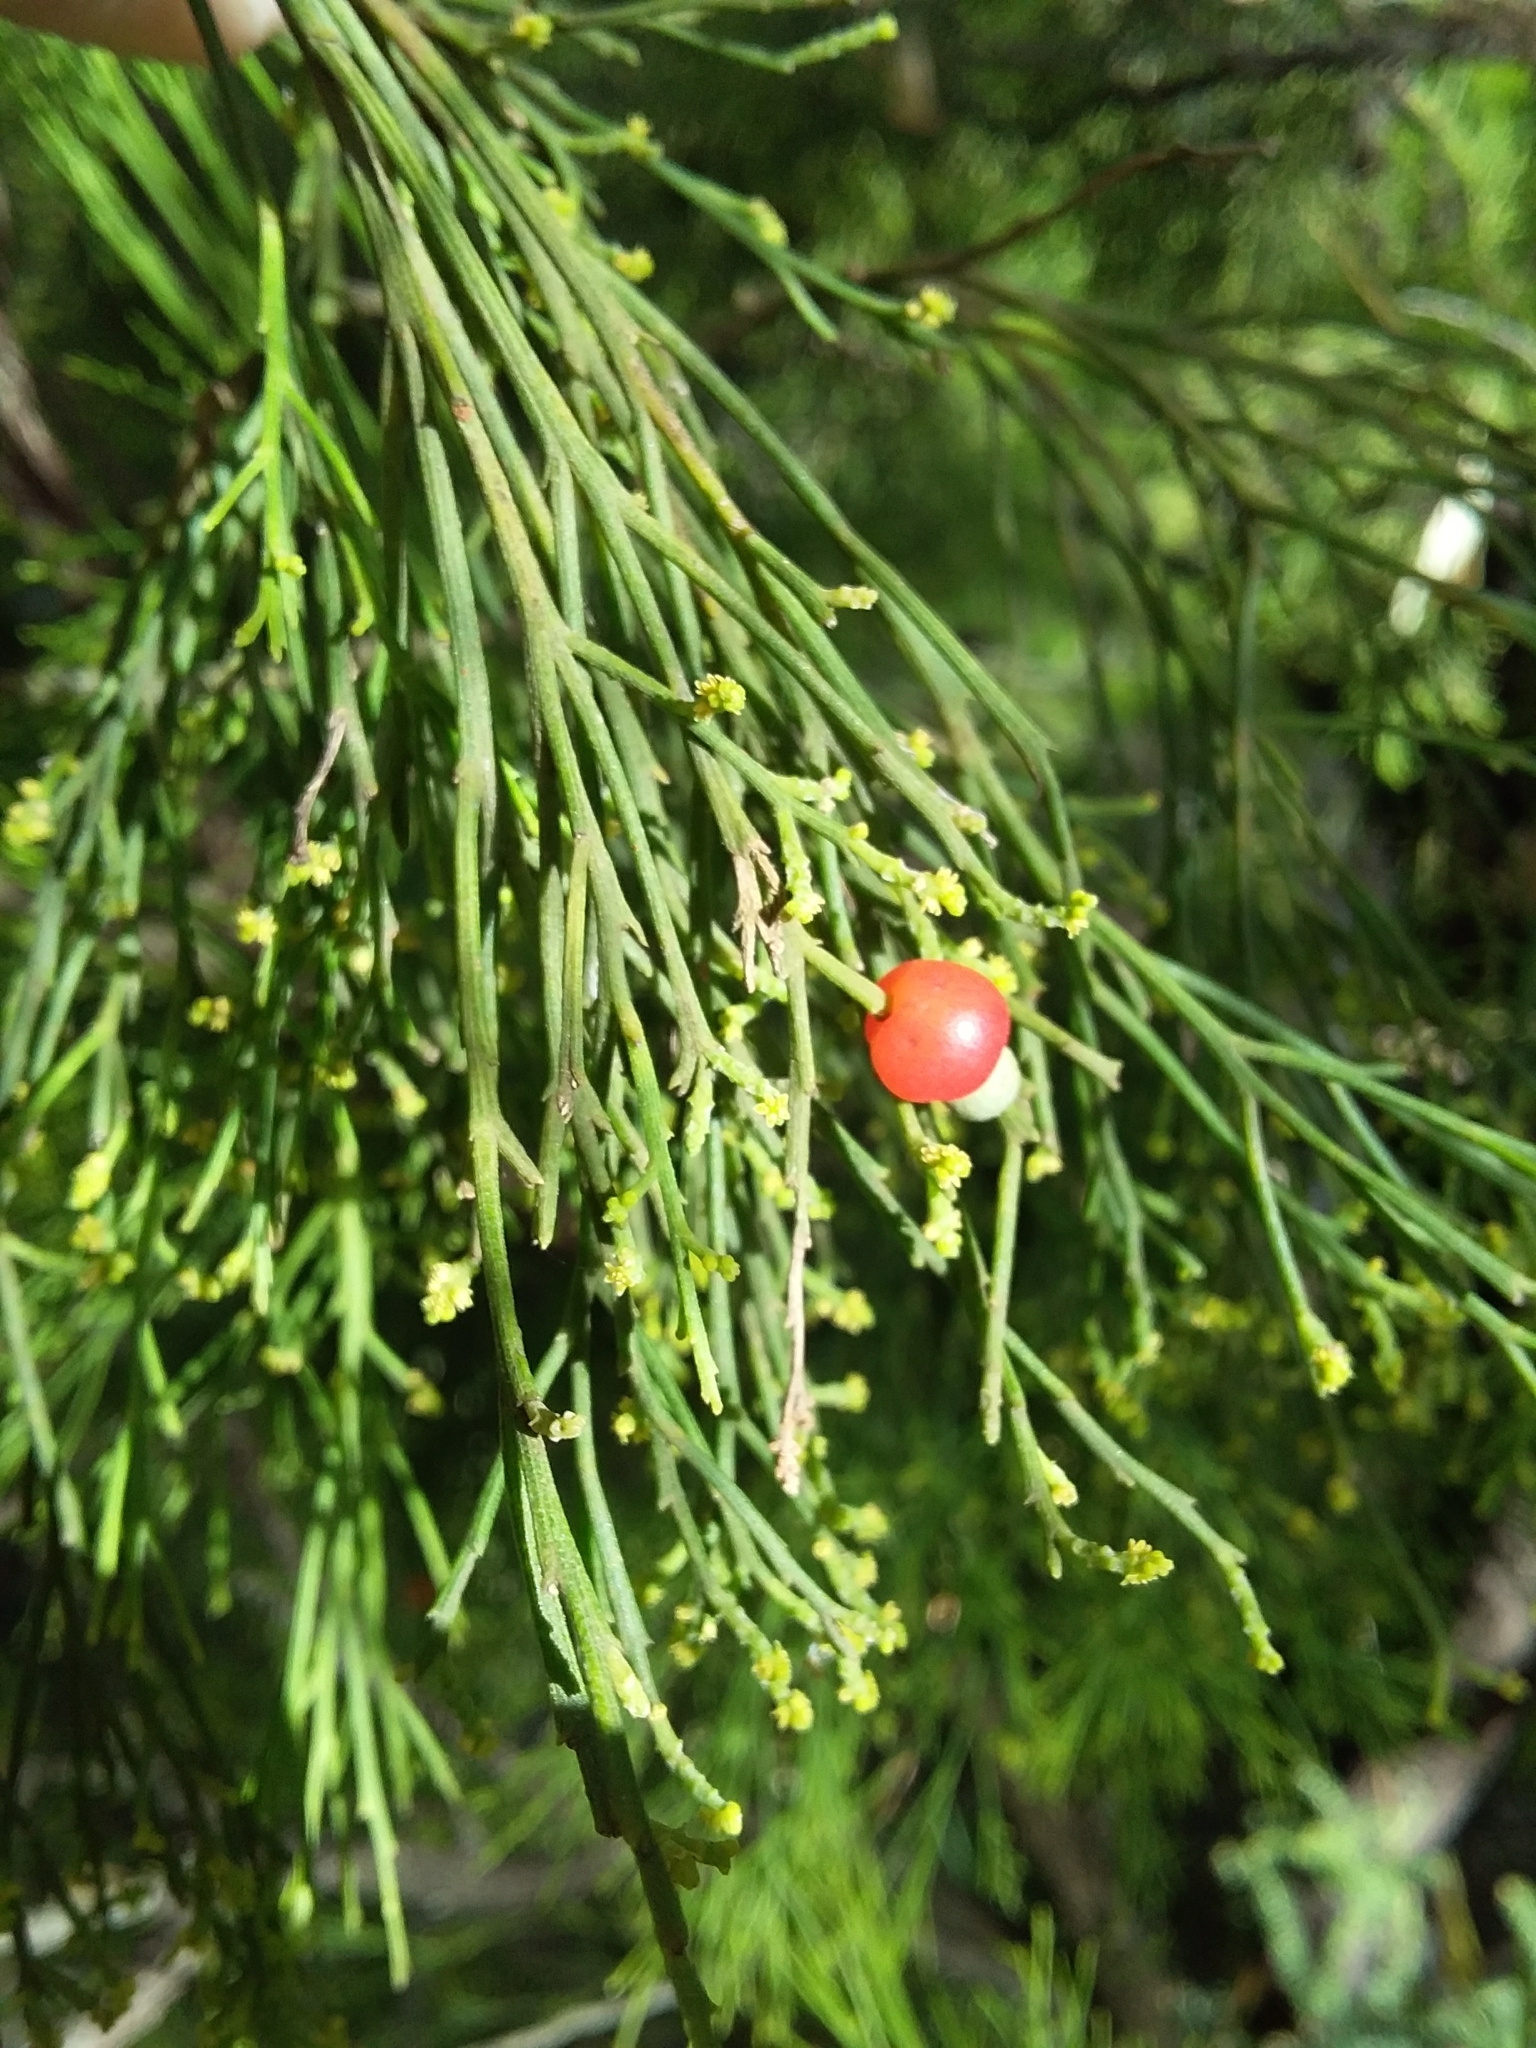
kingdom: Plantae
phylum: Tracheophyta
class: Magnoliopsida
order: Santalales
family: Santalaceae
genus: Exocarpos
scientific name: Exocarpos cupressiformis
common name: Cherry ballart
